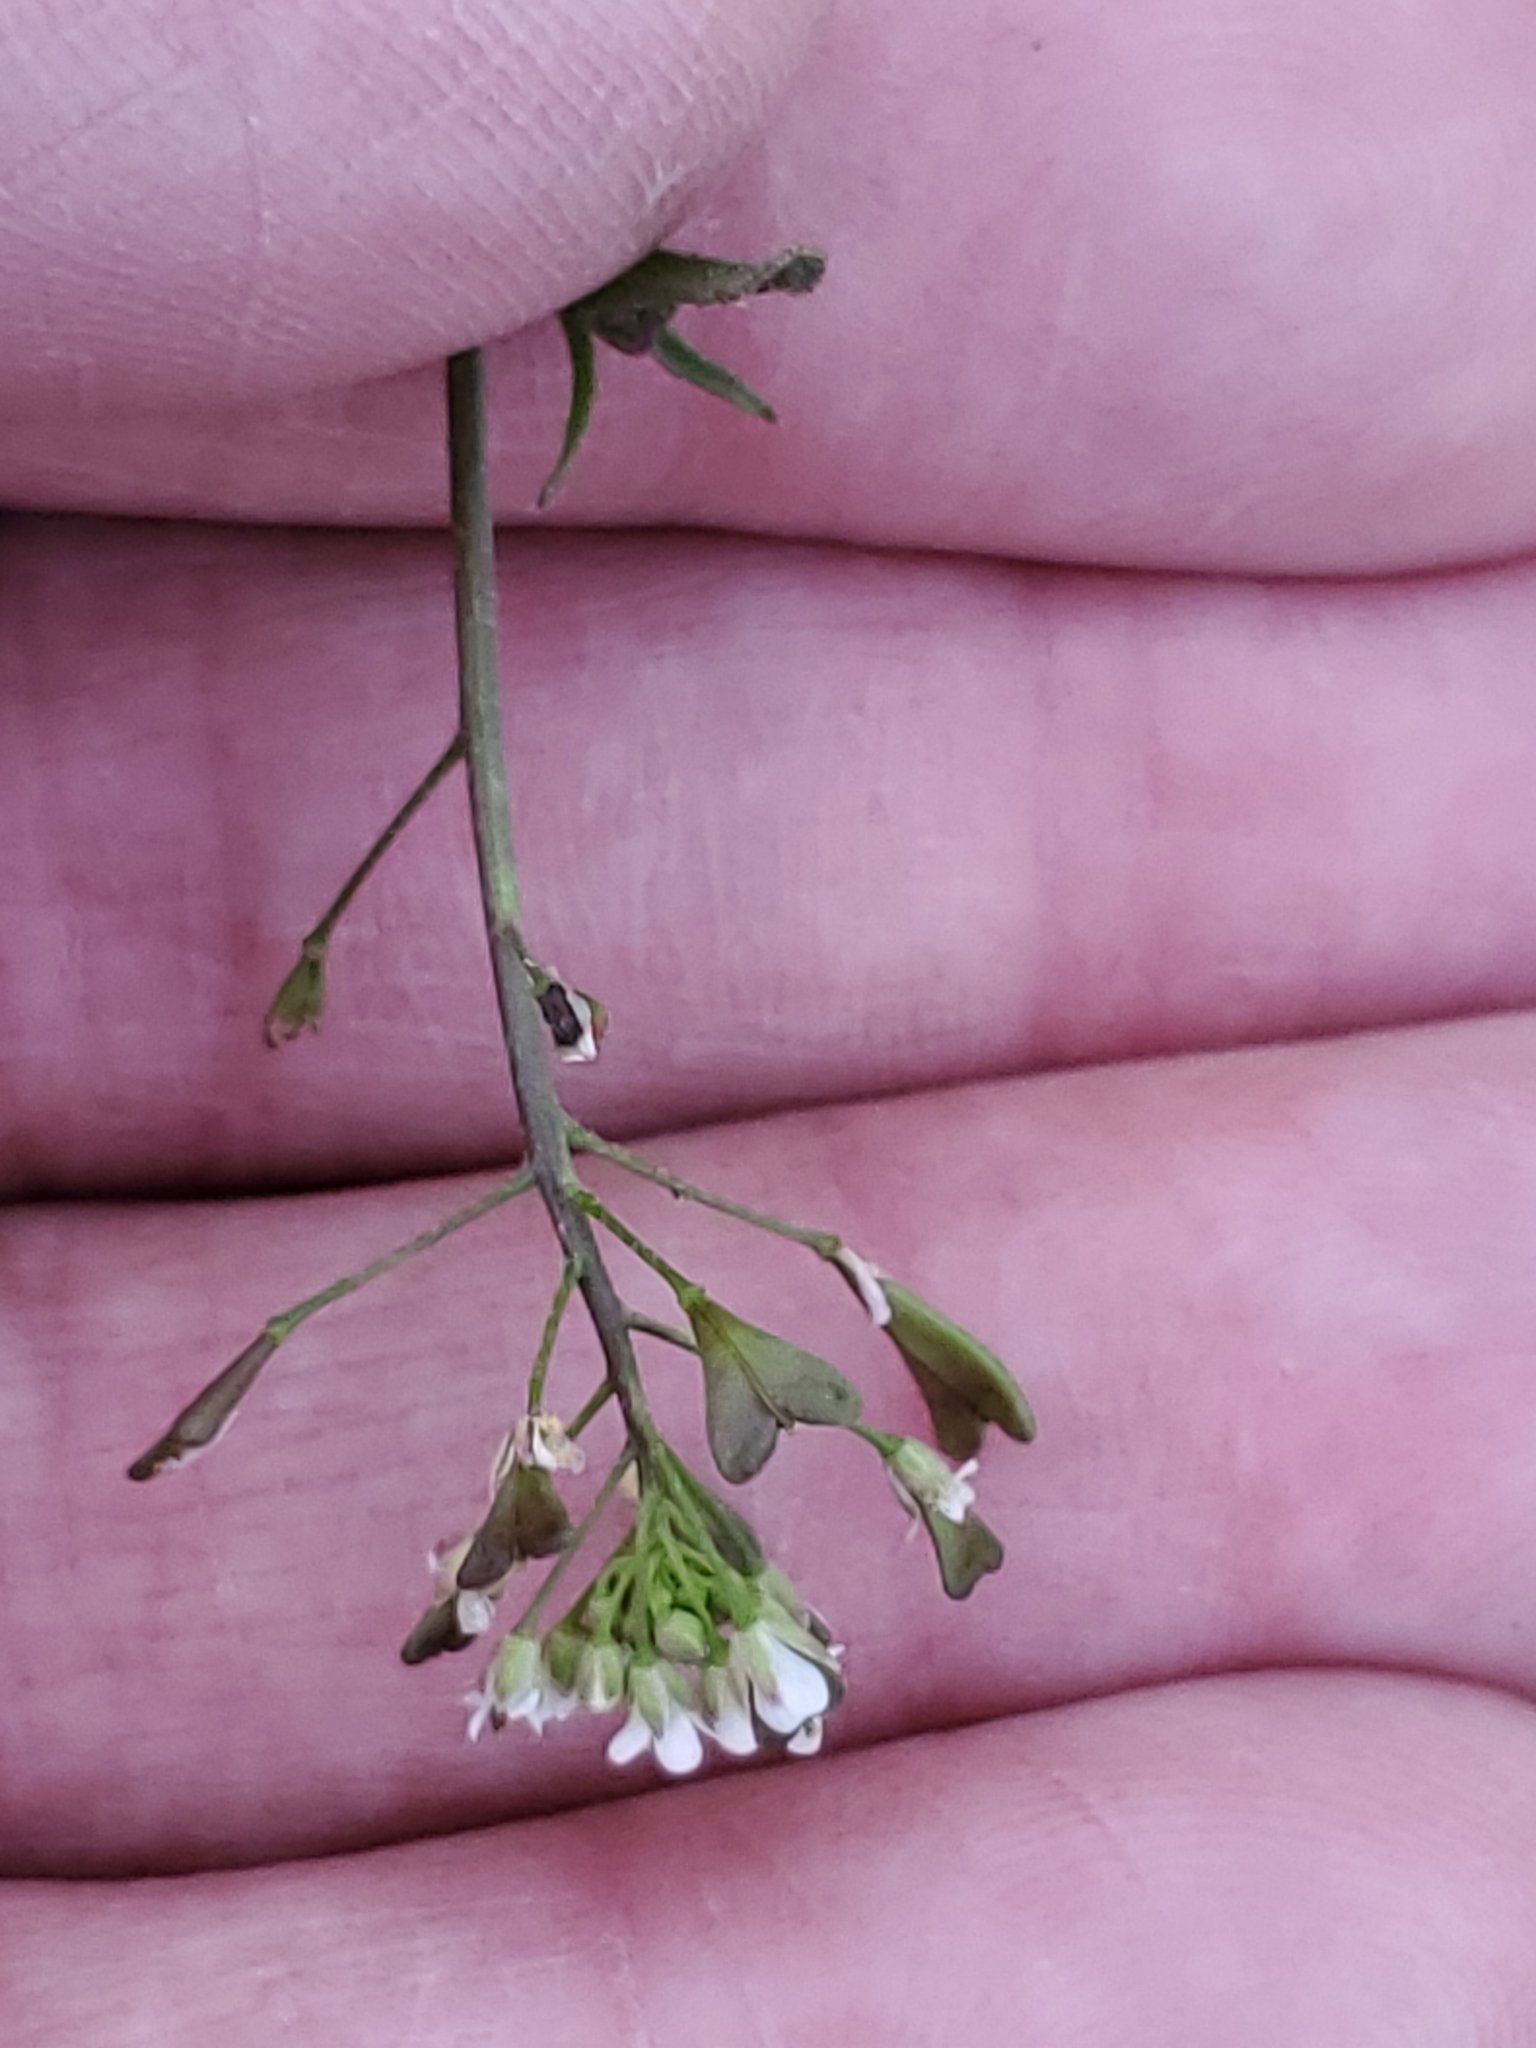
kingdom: Plantae
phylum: Tracheophyta
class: Magnoliopsida
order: Brassicales
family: Brassicaceae
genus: Capsella
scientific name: Capsella bursa-pastoris
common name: Shepherd's purse
